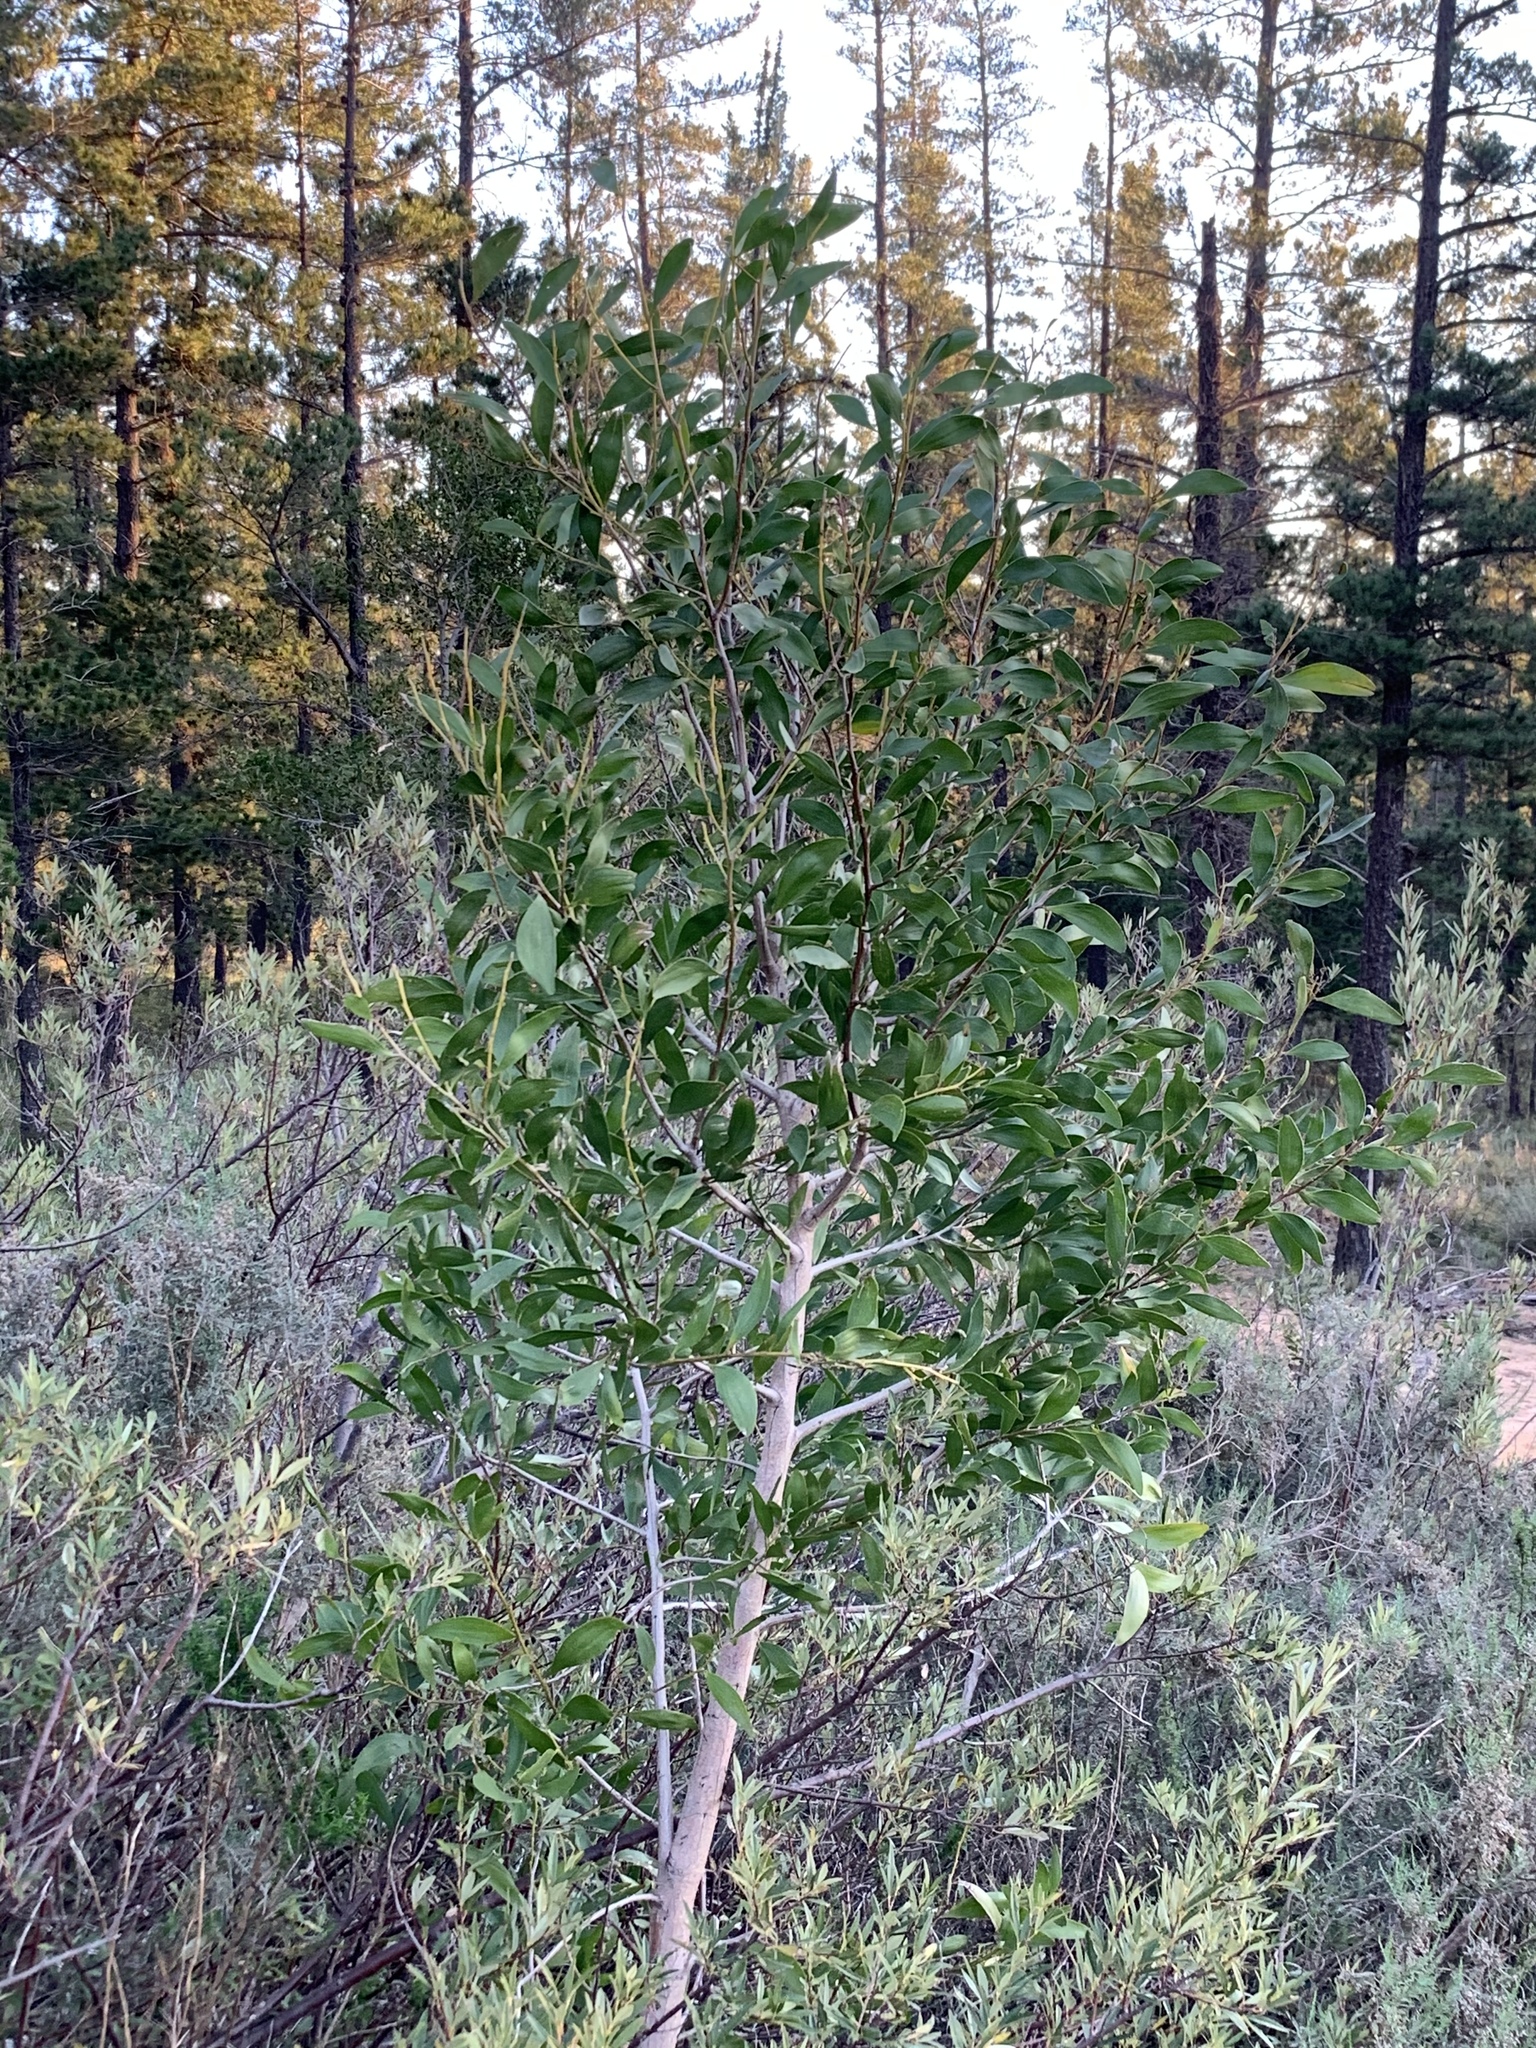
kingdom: Plantae
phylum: Tracheophyta
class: Magnoliopsida
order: Fabales
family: Fabaceae
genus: Acacia
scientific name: Acacia melanoxylon
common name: Blackwood
